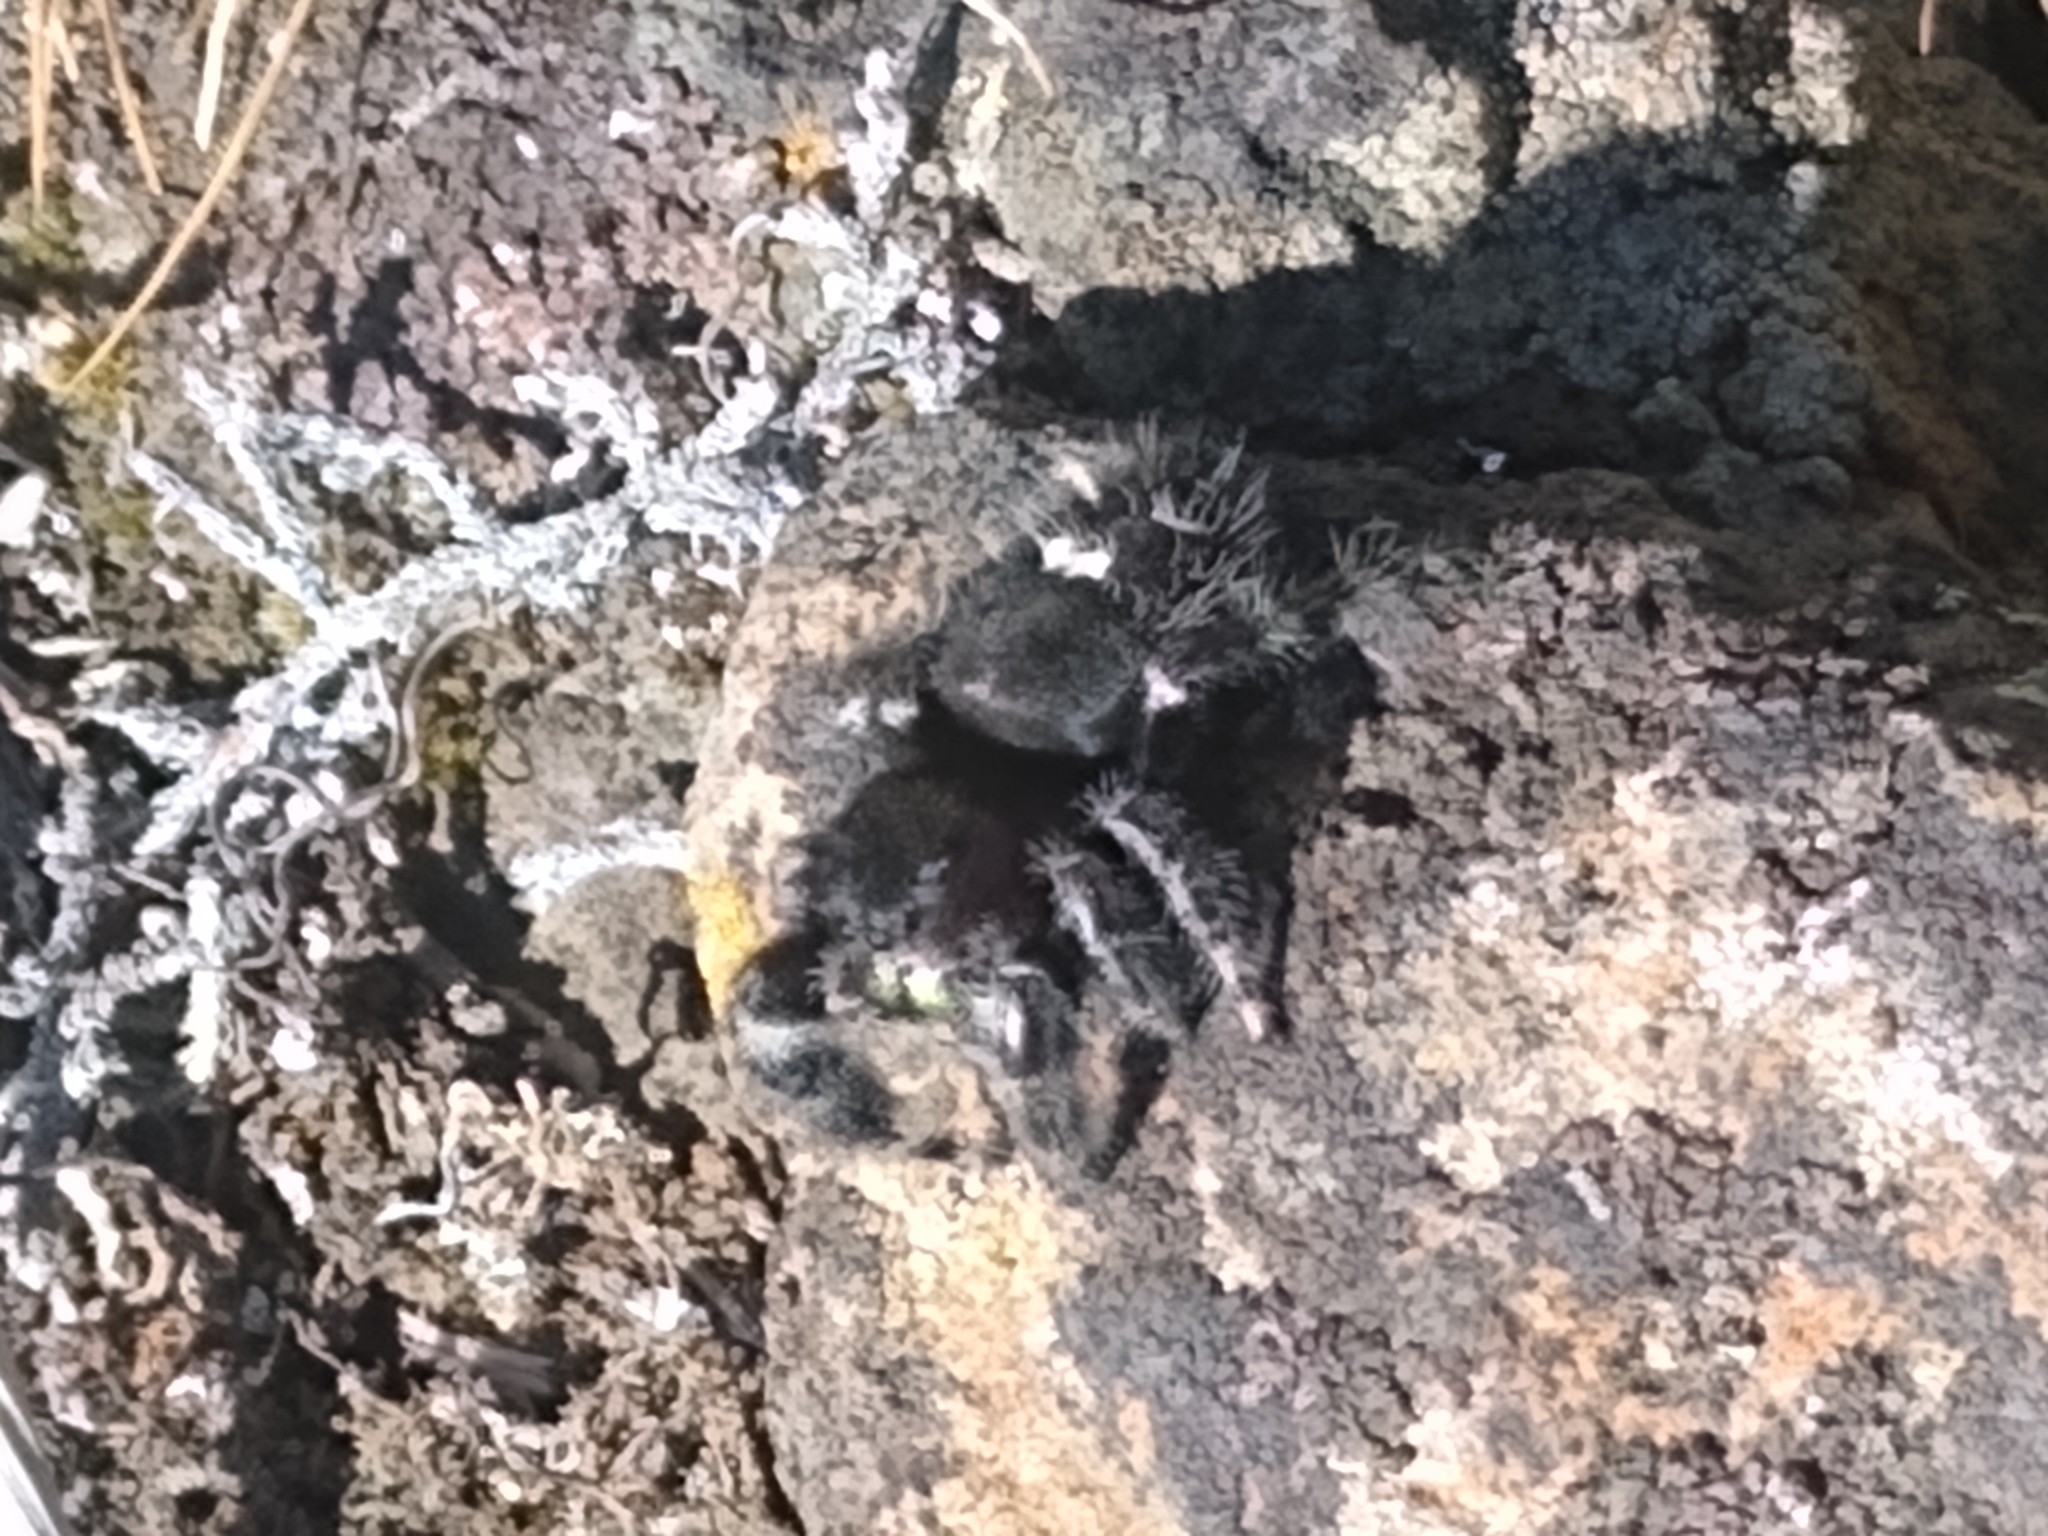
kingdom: Animalia
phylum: Arthropoda
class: Arachnida
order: Araneae
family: Salticidae
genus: Phidippus
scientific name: Phidippus audax
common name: Bold jumper
